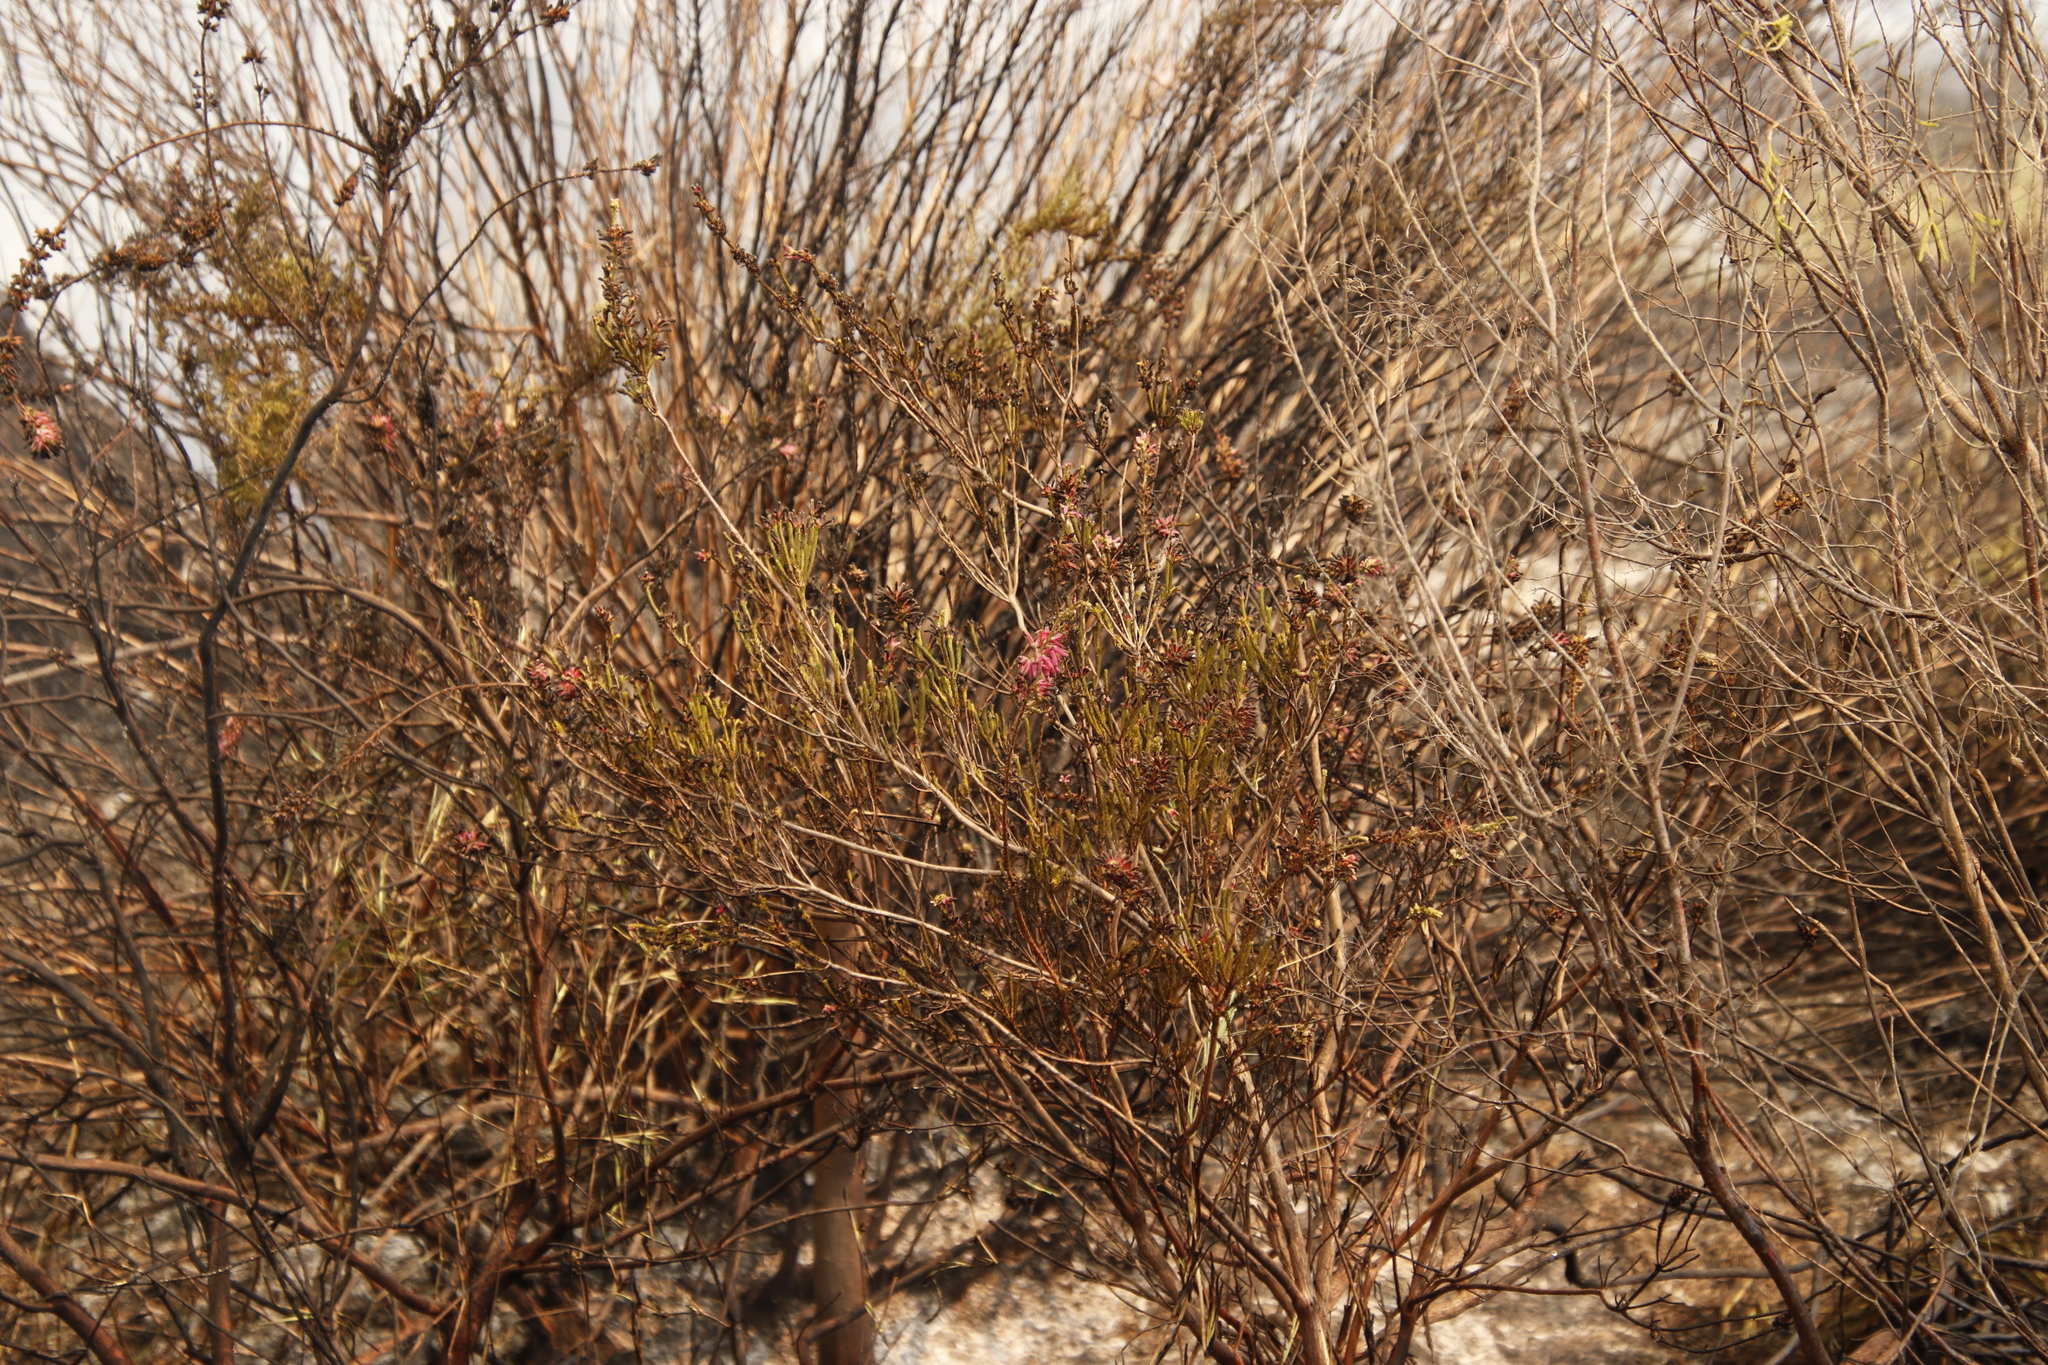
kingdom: Plantae
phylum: Tracheophyta
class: Magnoliopsida
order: Ericales
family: Ericaceae
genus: Erica
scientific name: Erica verticillata
